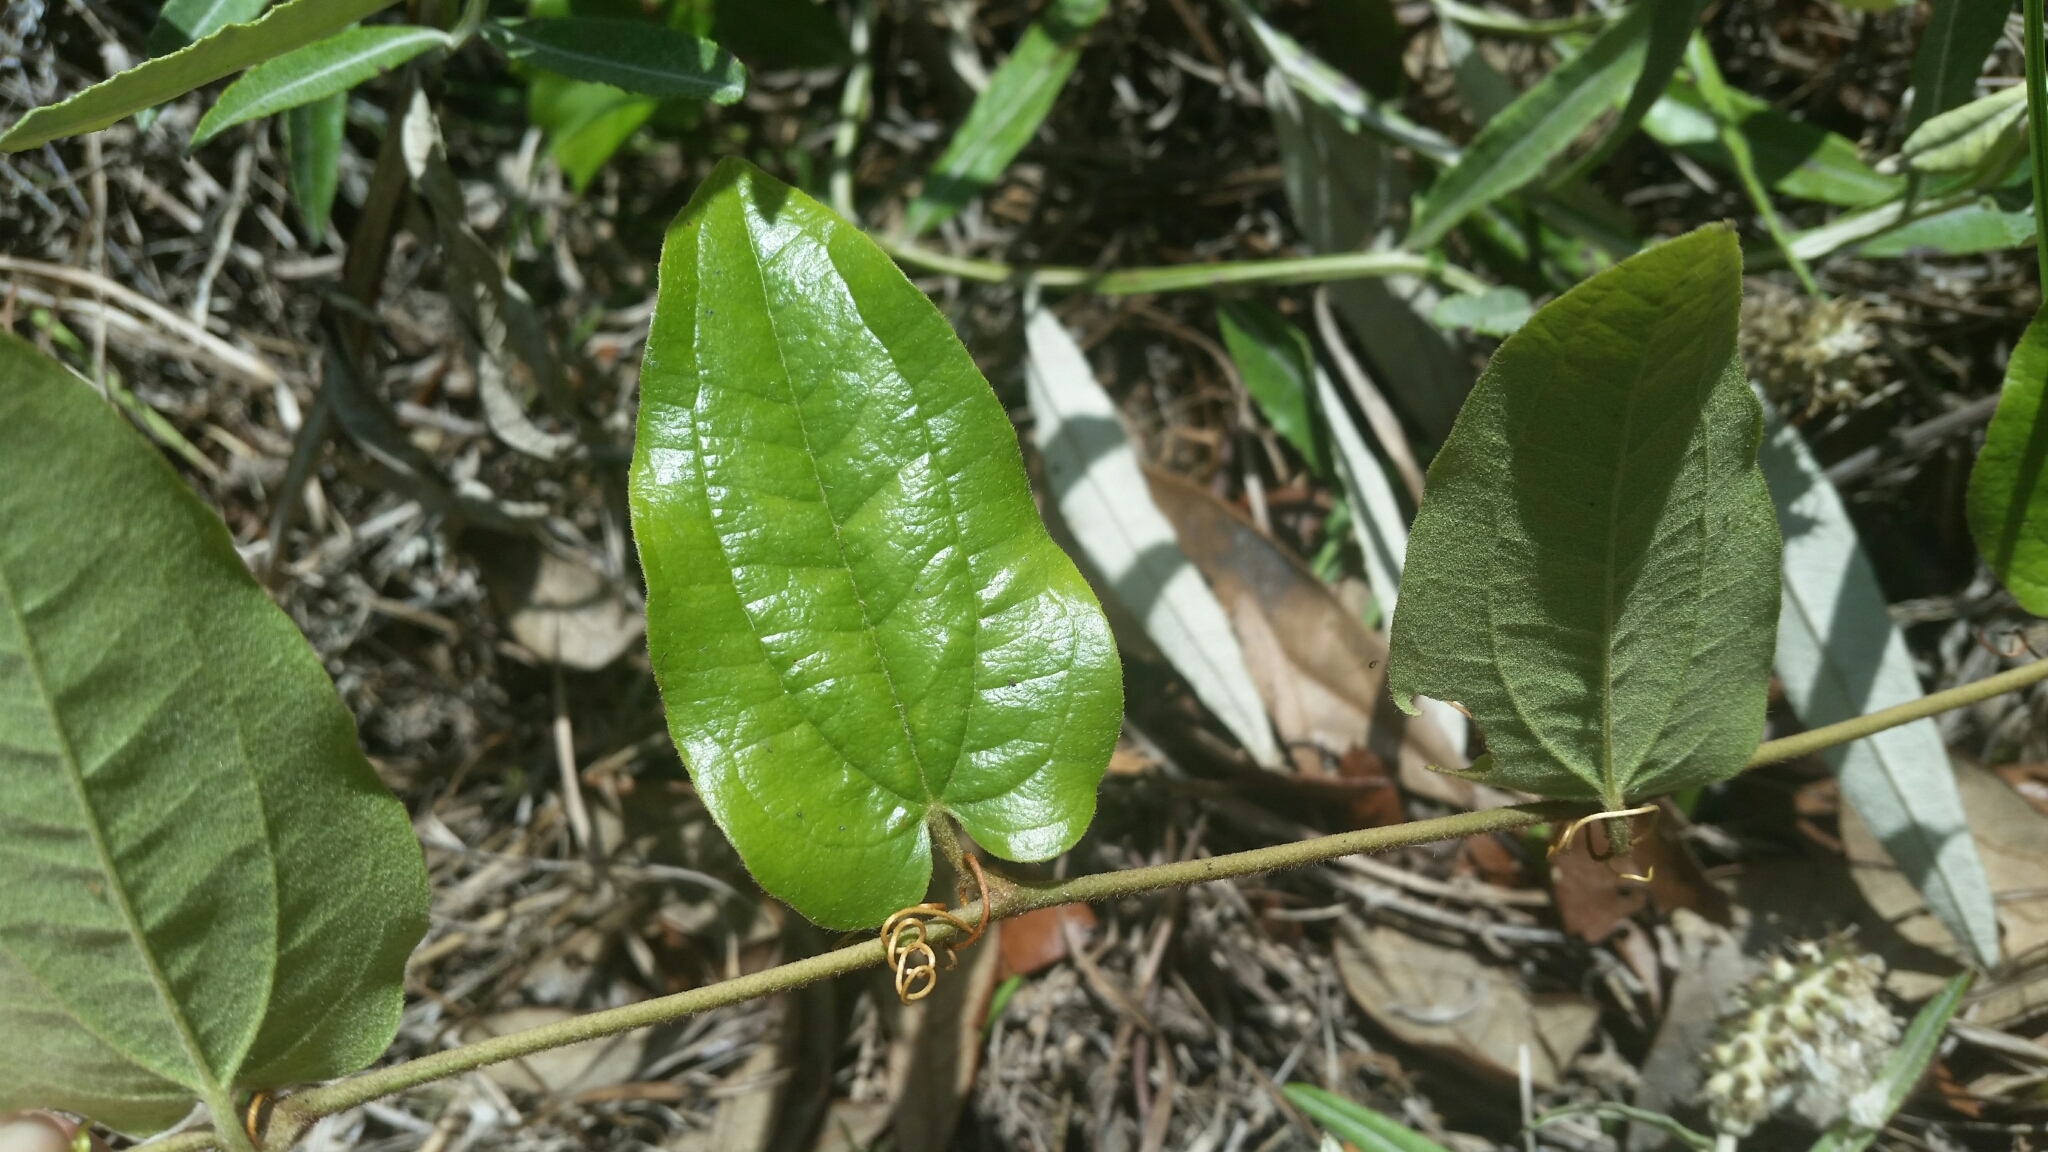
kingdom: Plantae
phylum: Tracheophyta
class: Liliopsida
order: Liliales
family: Smilacaceae
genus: Smilax
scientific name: Smilax pumila
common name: Sarsaparilla-vine
